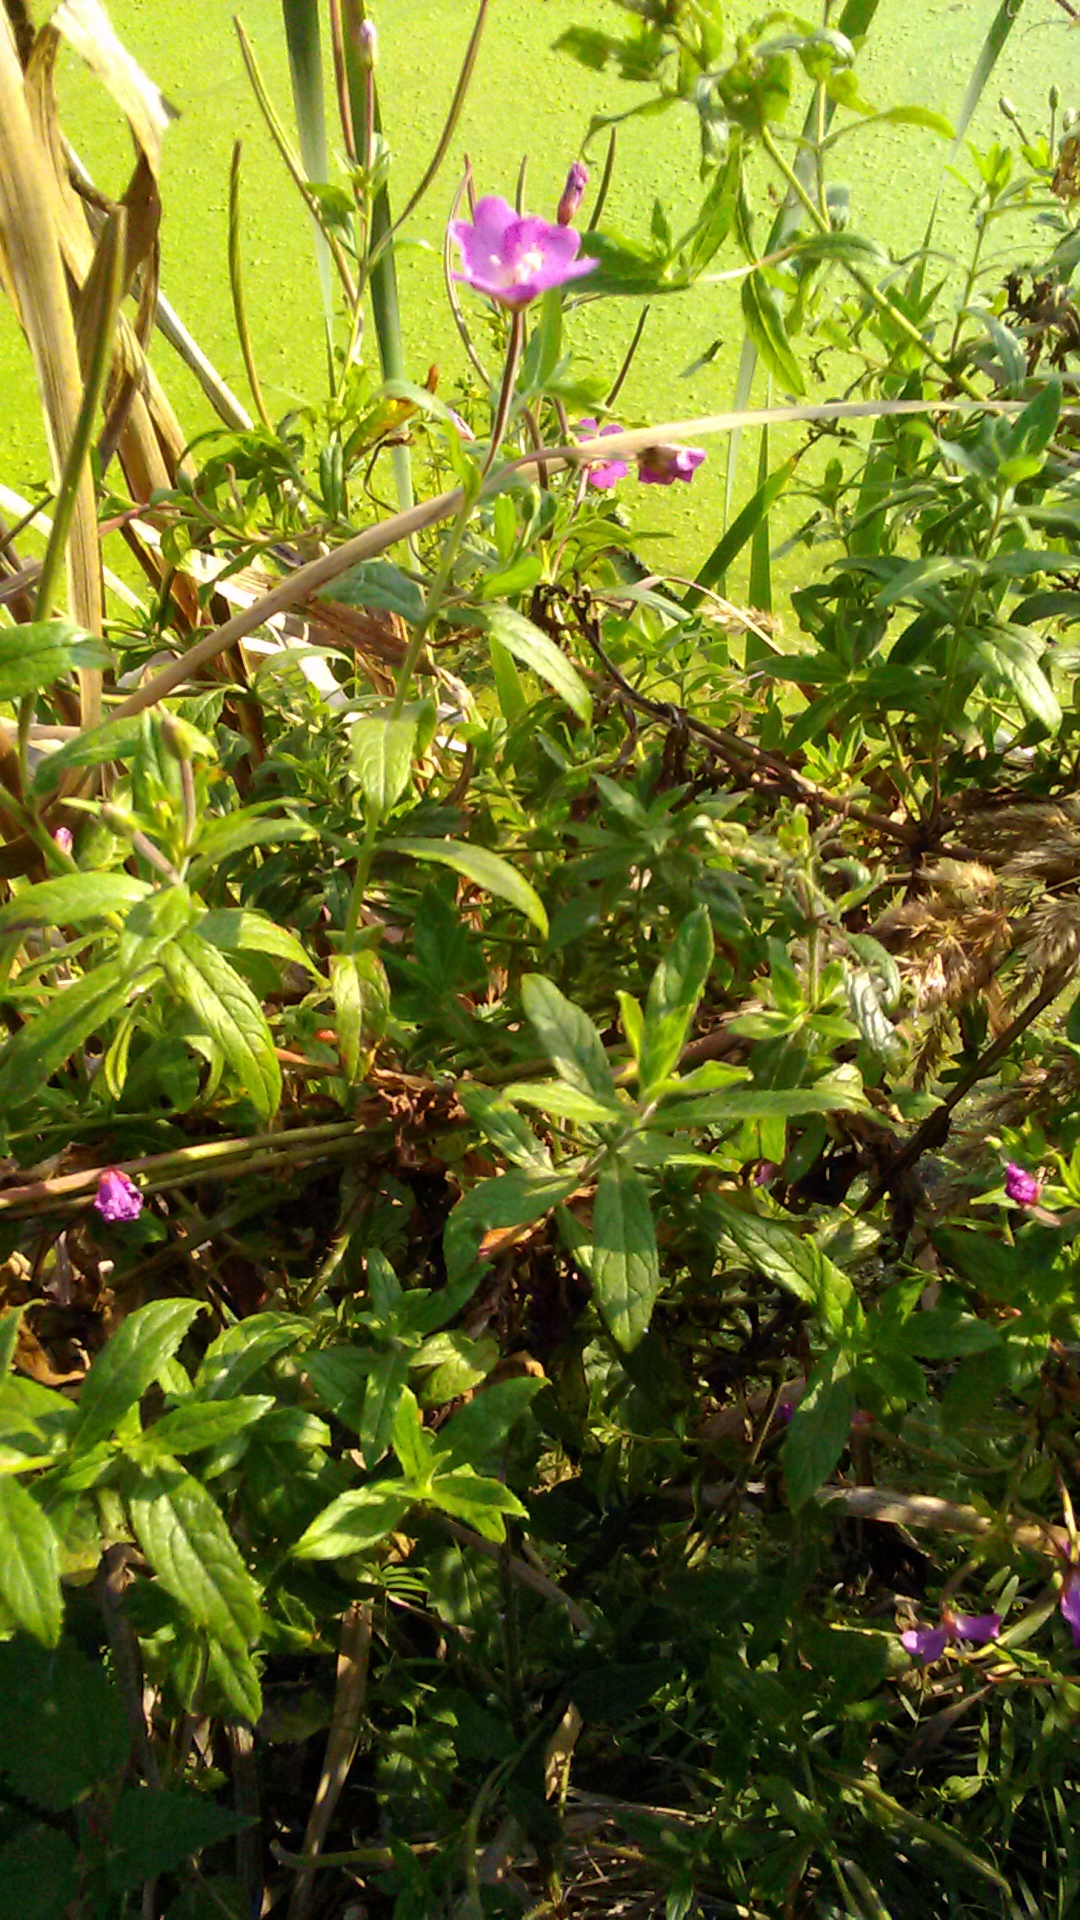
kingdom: Plantae
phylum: Tracheophyta
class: Magnoliopsida
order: Myrtales
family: Onagraceae
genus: Epilobium
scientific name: Epilobium hirsutum
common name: Great willowherb
